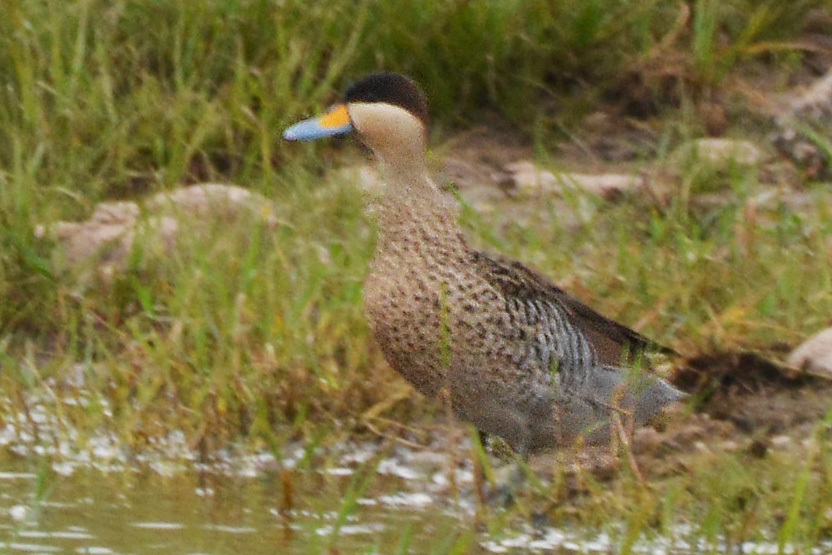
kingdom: Animalia
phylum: Chordata
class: Aves
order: Anseriformes
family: Anatidae
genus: Spatula
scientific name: Spatula versicolor
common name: Silver teal
